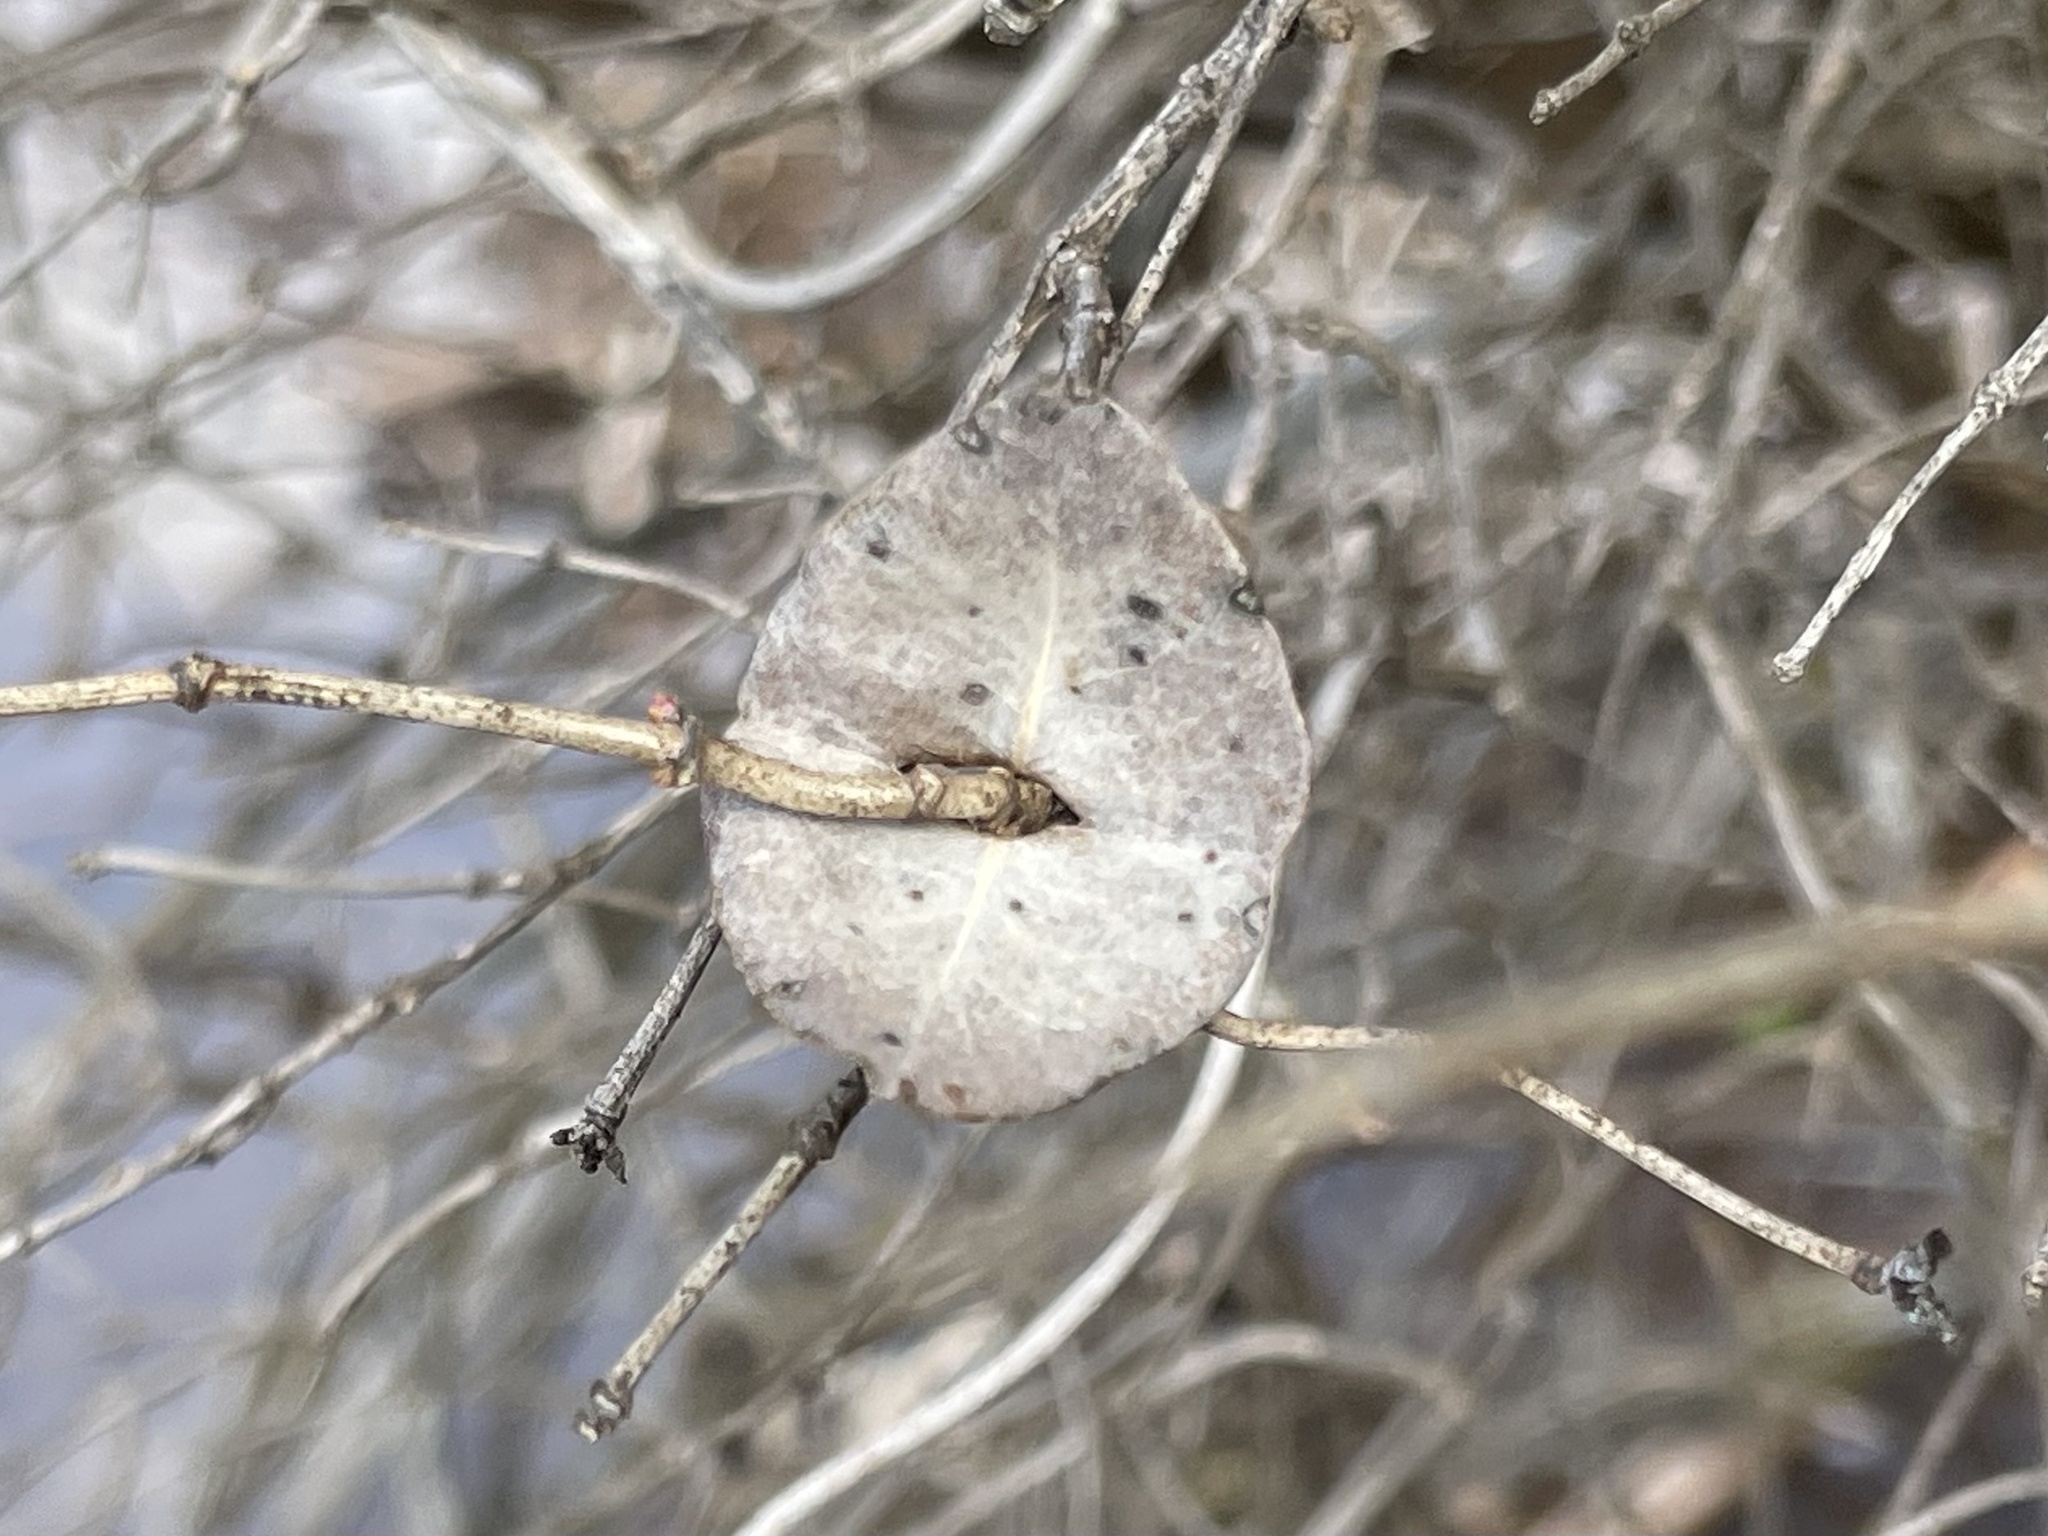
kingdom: Plantae
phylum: Tracheophyta
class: Magnoliopsida
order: Dipsacales
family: Caprifoliaceae
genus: Lonicera
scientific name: Lonicera albiflora
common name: White honeysuckle
